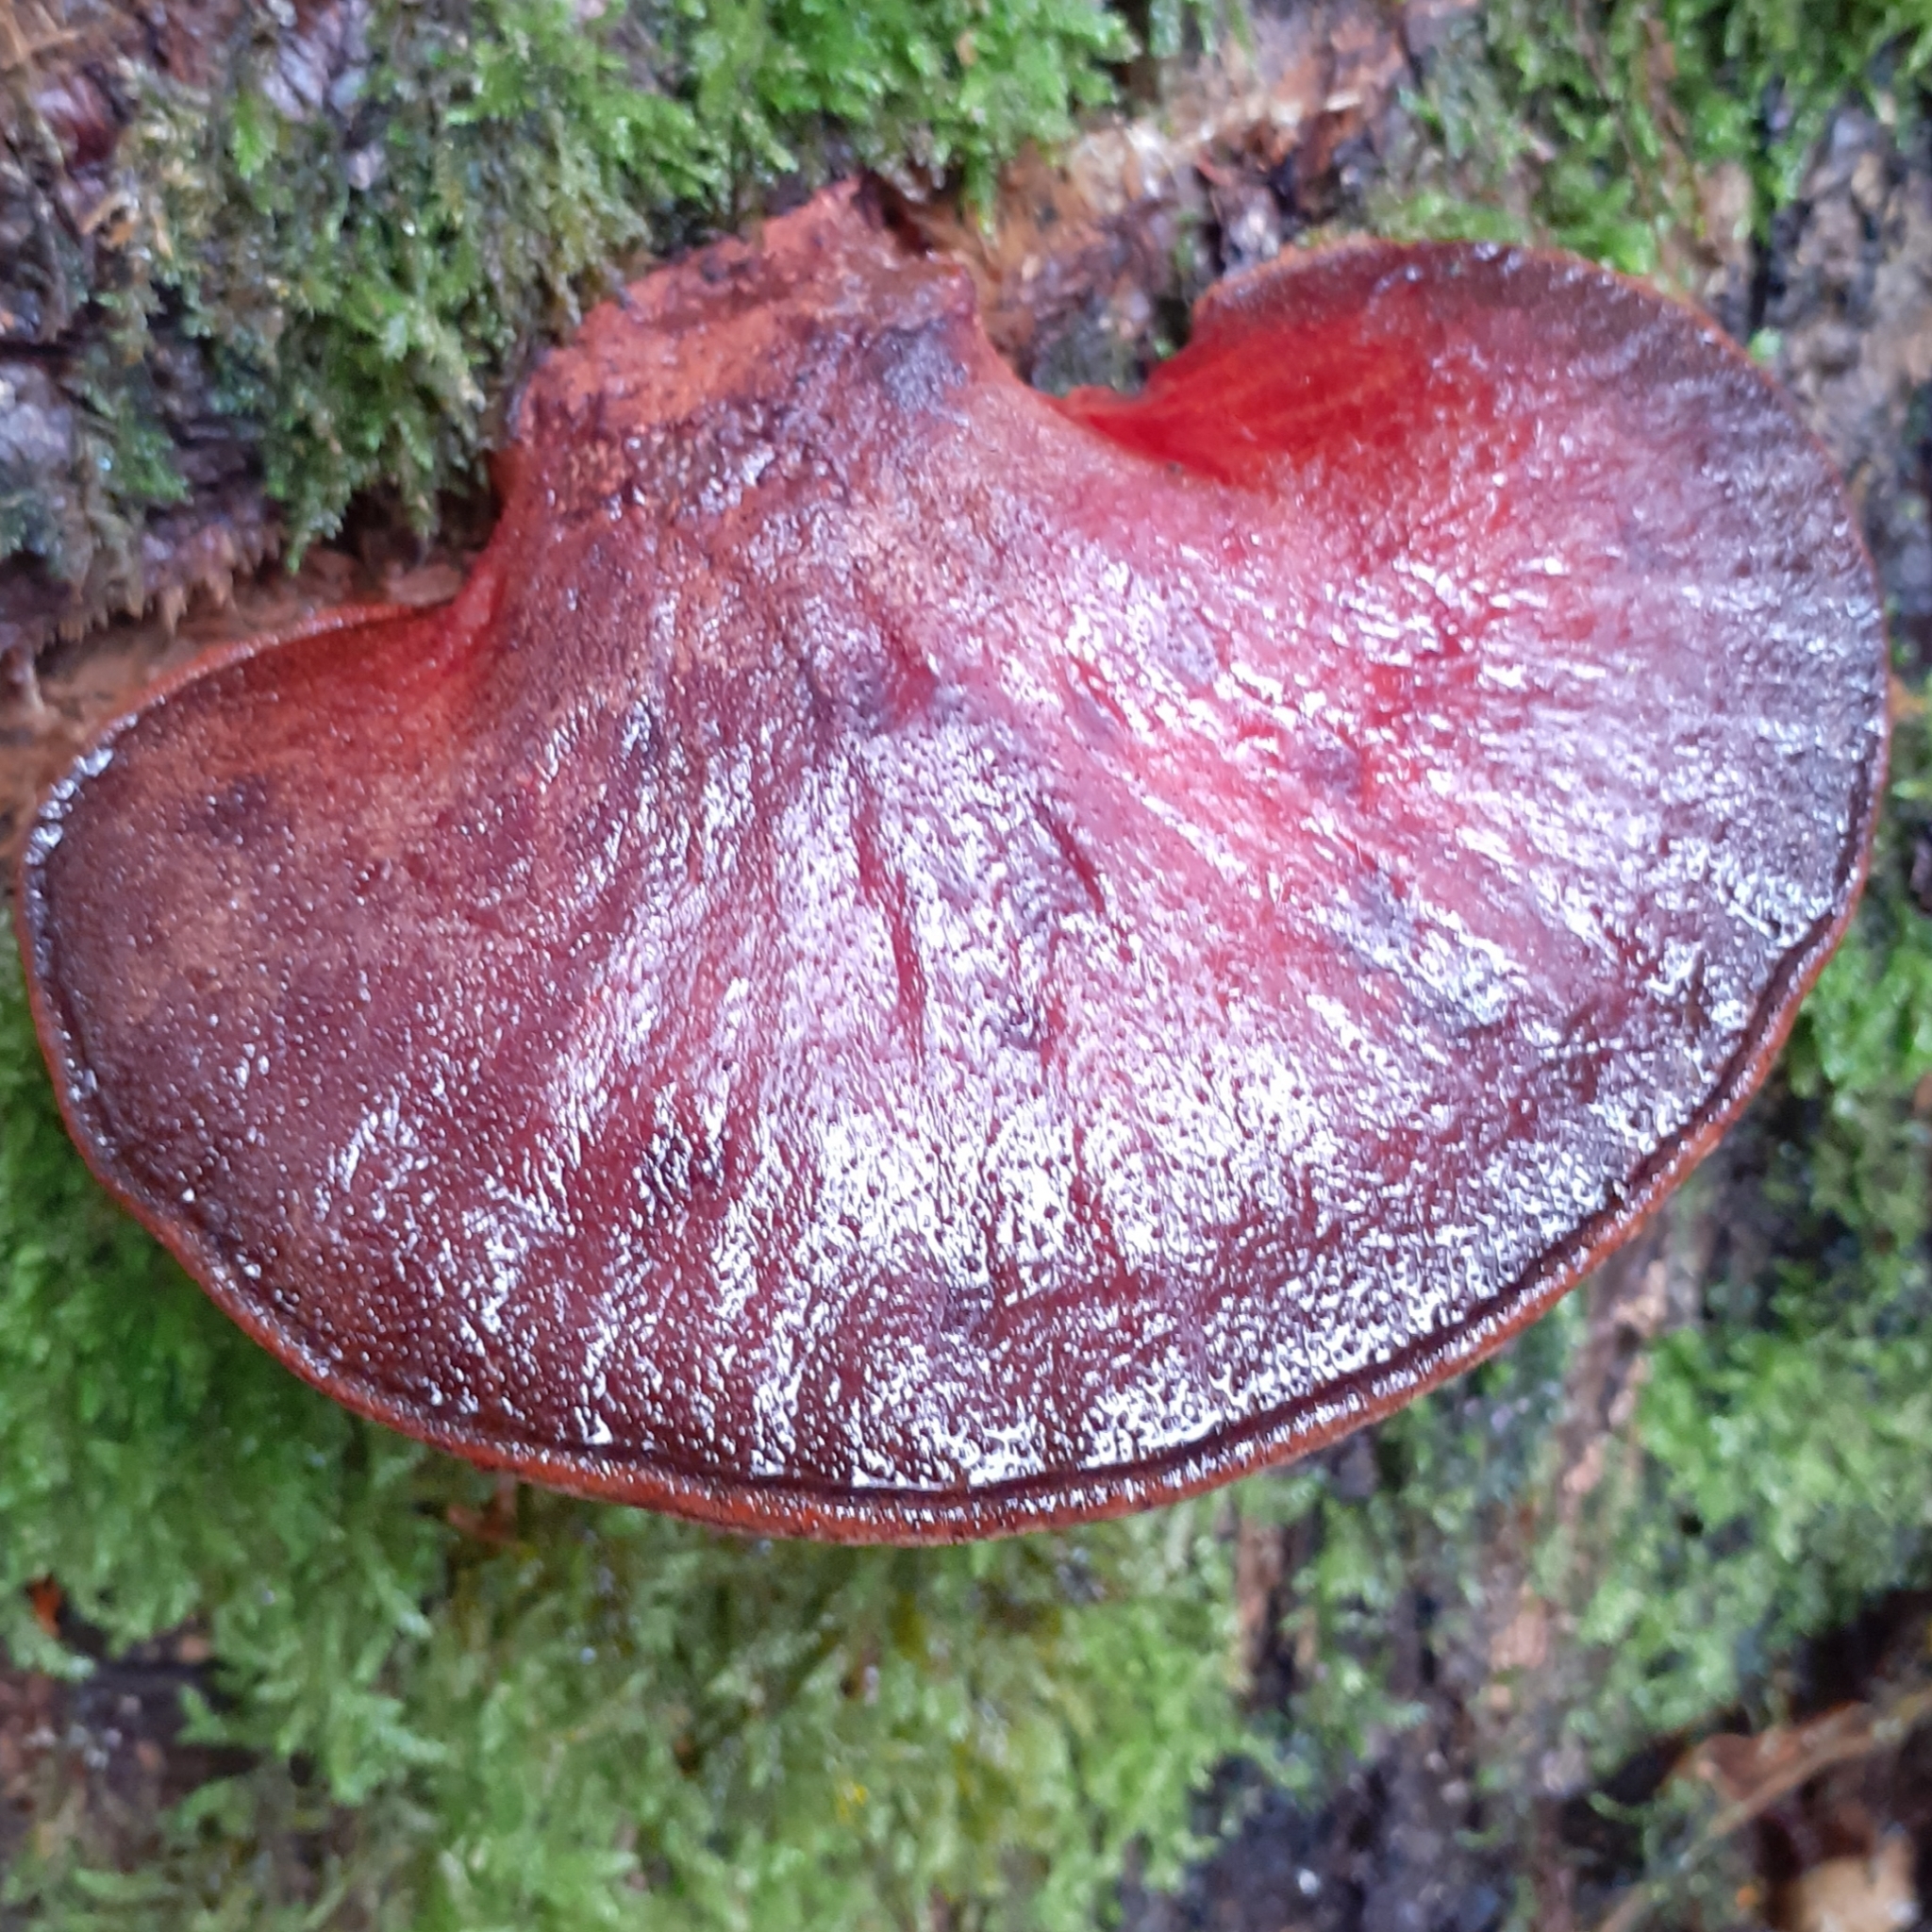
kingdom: Fungi
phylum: Basidiomycota
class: Agaricomycetes
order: Agaricales
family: Fistulinaceae
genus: Fistulina
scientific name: Fistulina hepatica
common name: Beef-steak fungus
